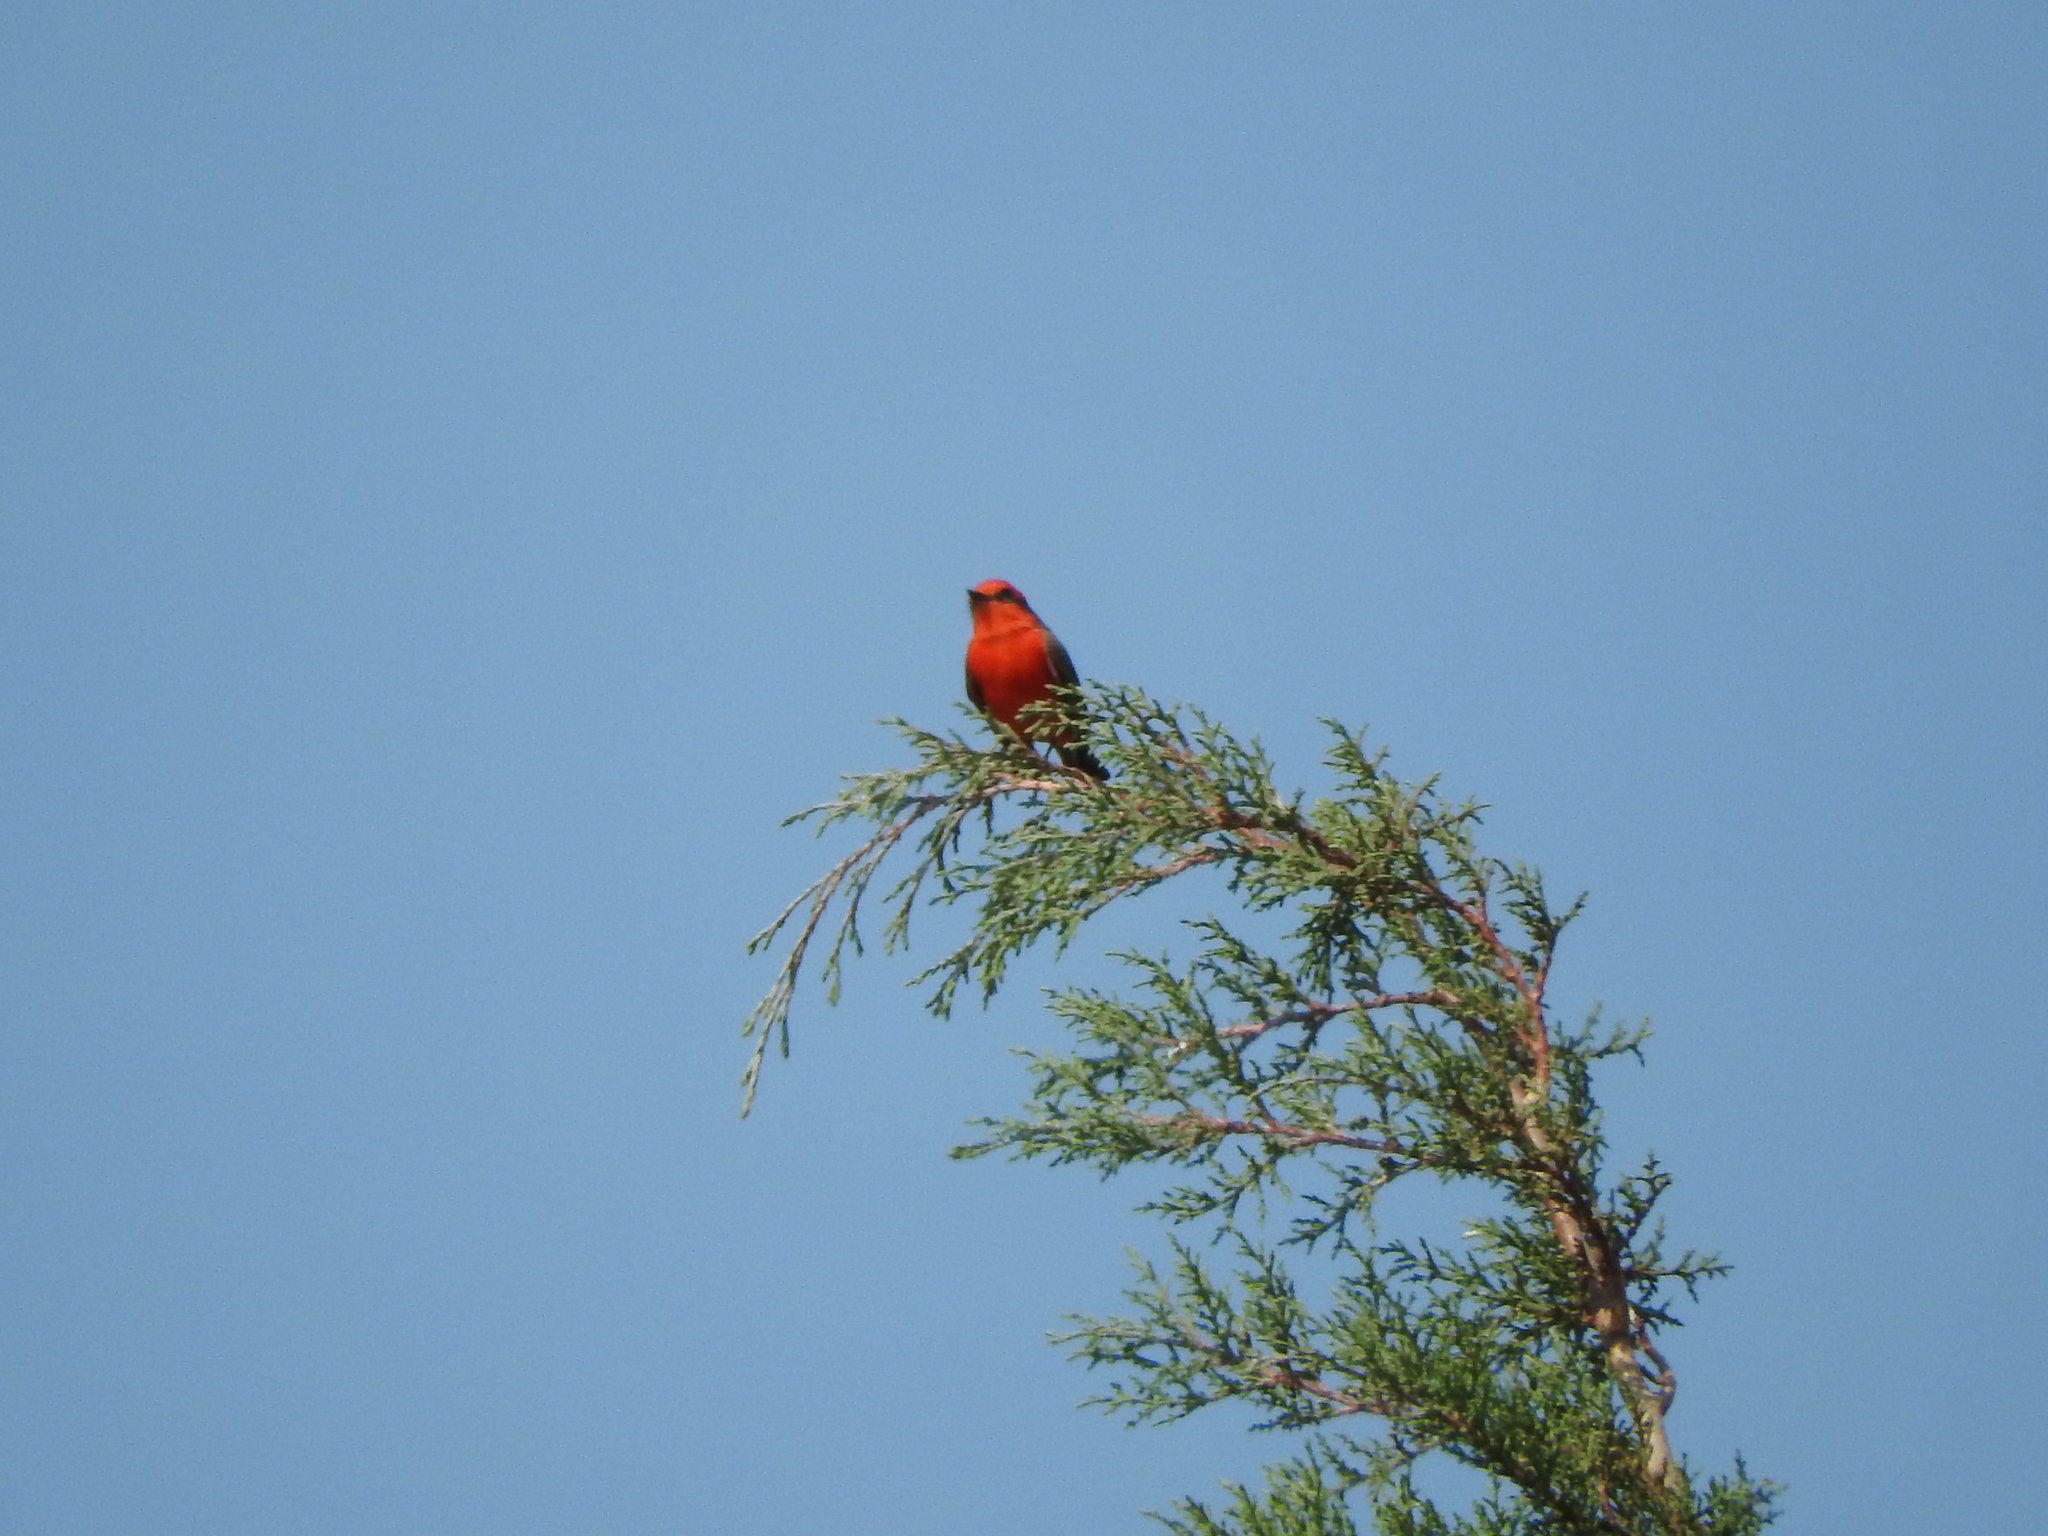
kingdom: Animalia
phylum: Chordata
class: Aves
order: Passeriformes
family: Tyrannidae
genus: Pyrocephalus
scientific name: Pyrocephalus rubinus
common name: Vermilion flycatcher
